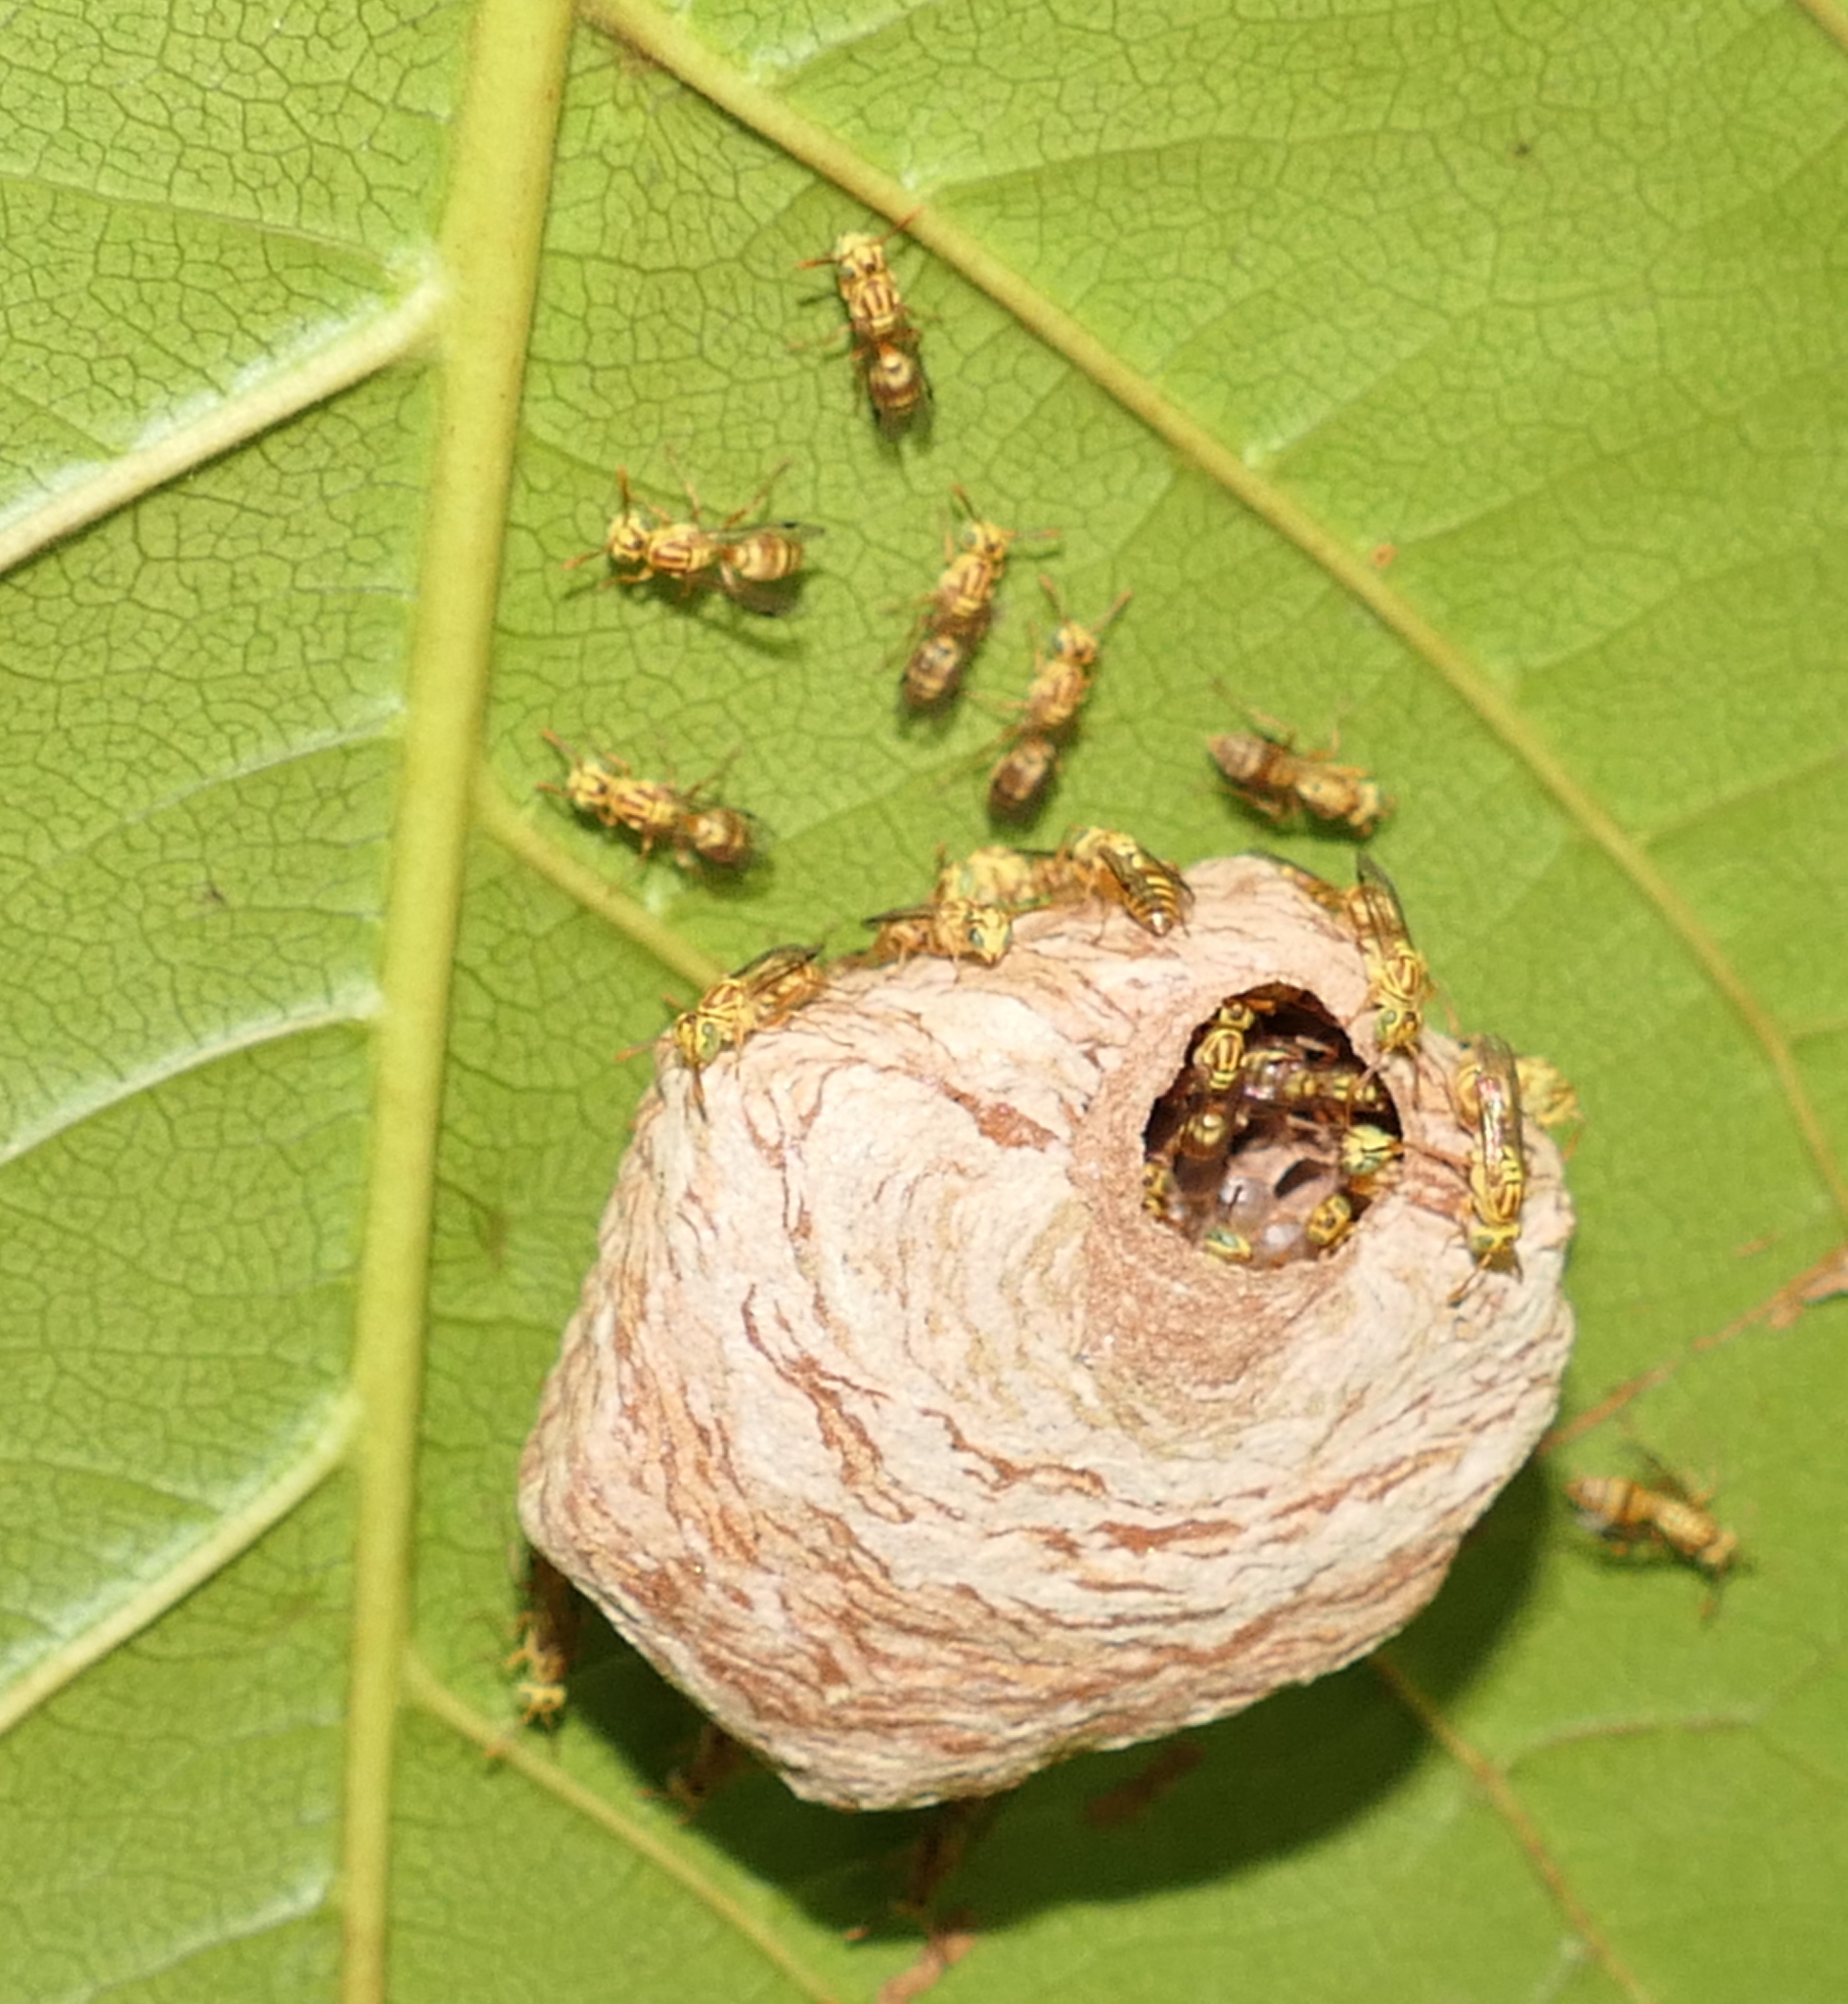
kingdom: Animalia
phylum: Arthropoda
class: Insecta
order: Hymenoptera
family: Vespidae
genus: Protopolybia
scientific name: Protopolybia potiguara
